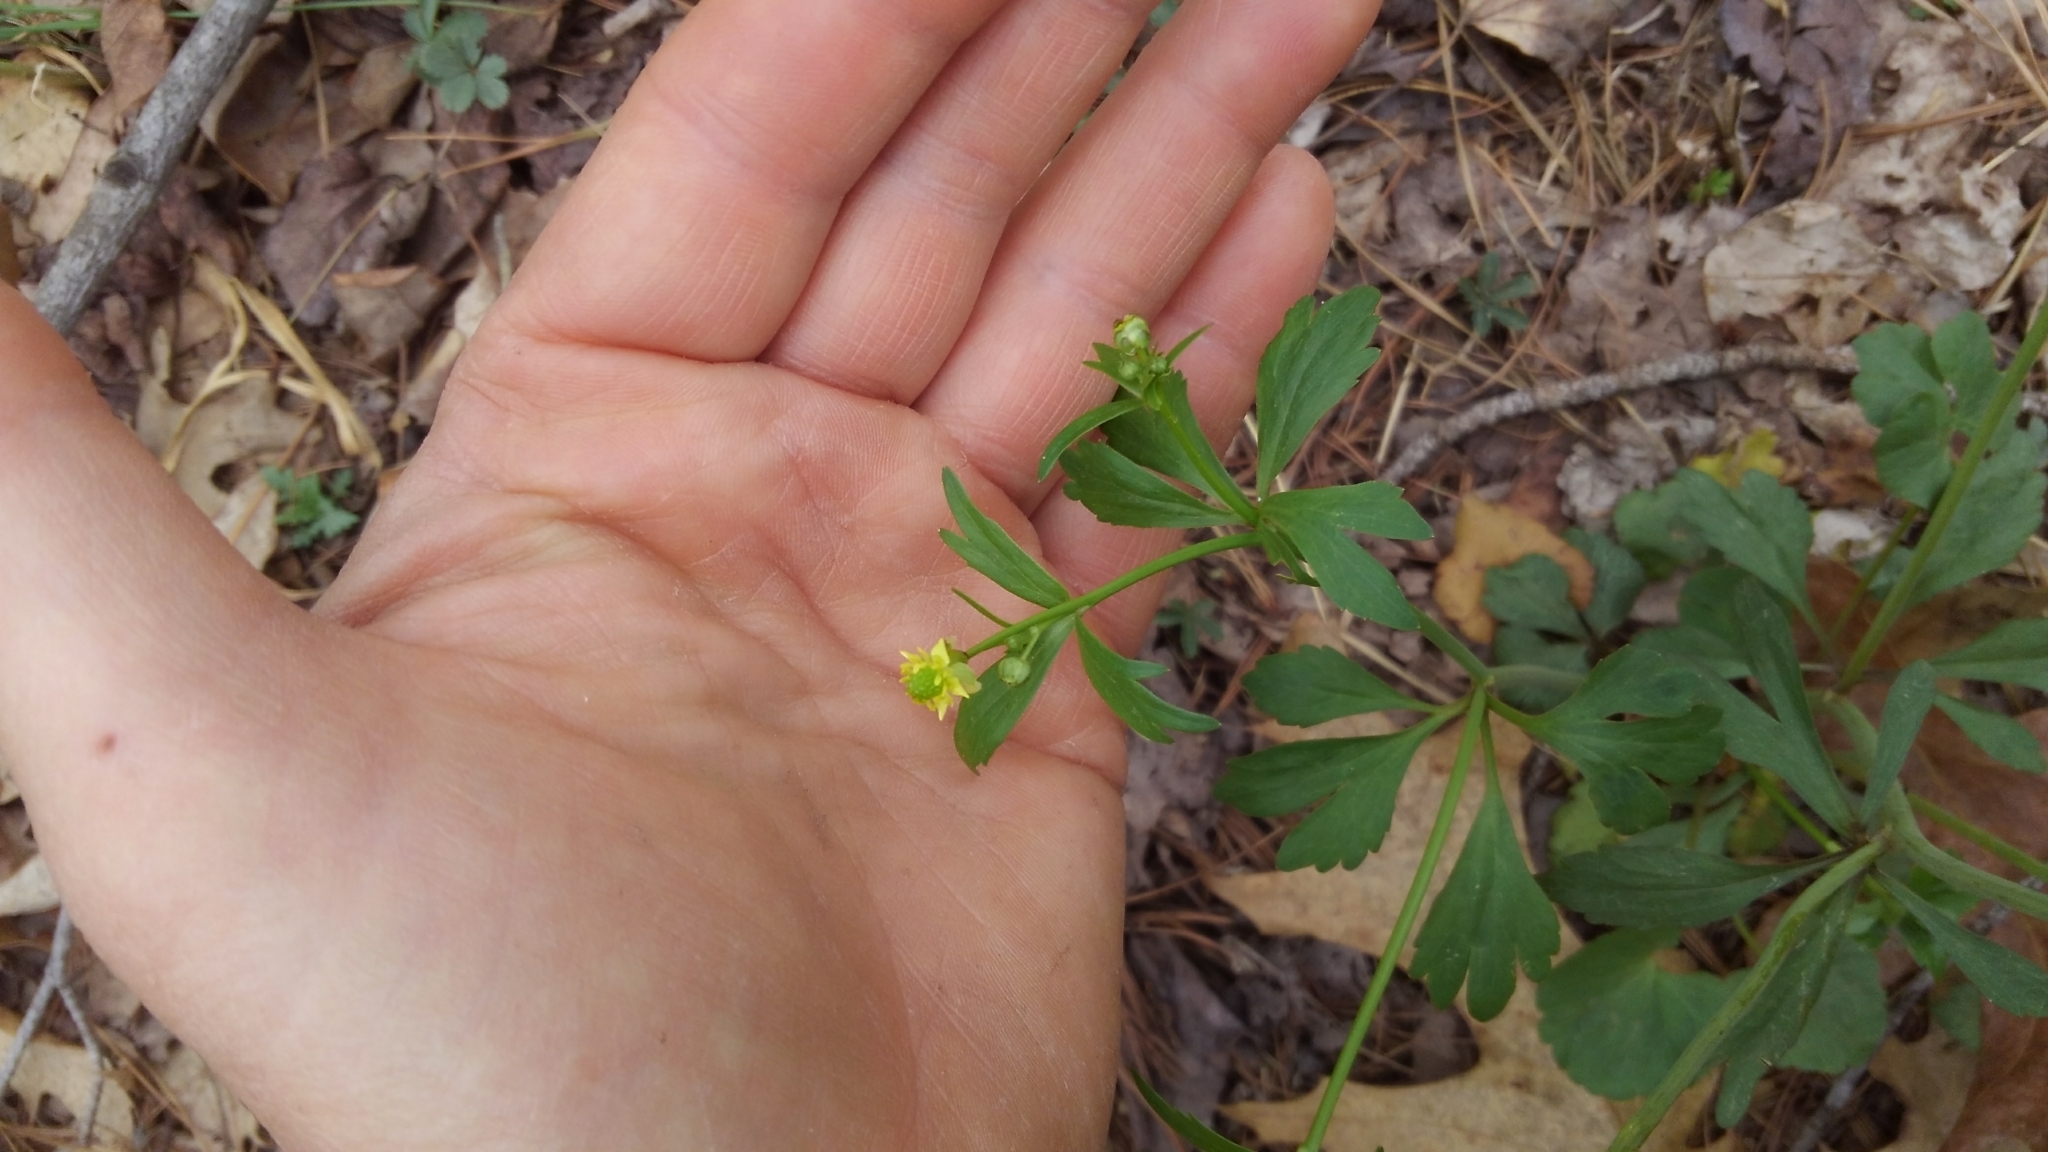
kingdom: Plantae
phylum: Tracheophyta
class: Magnoliopsida
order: Ranunculales
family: Ranunculaceae
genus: Ranunculus
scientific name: Ranunculus abortivus
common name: Early wood buttercup
